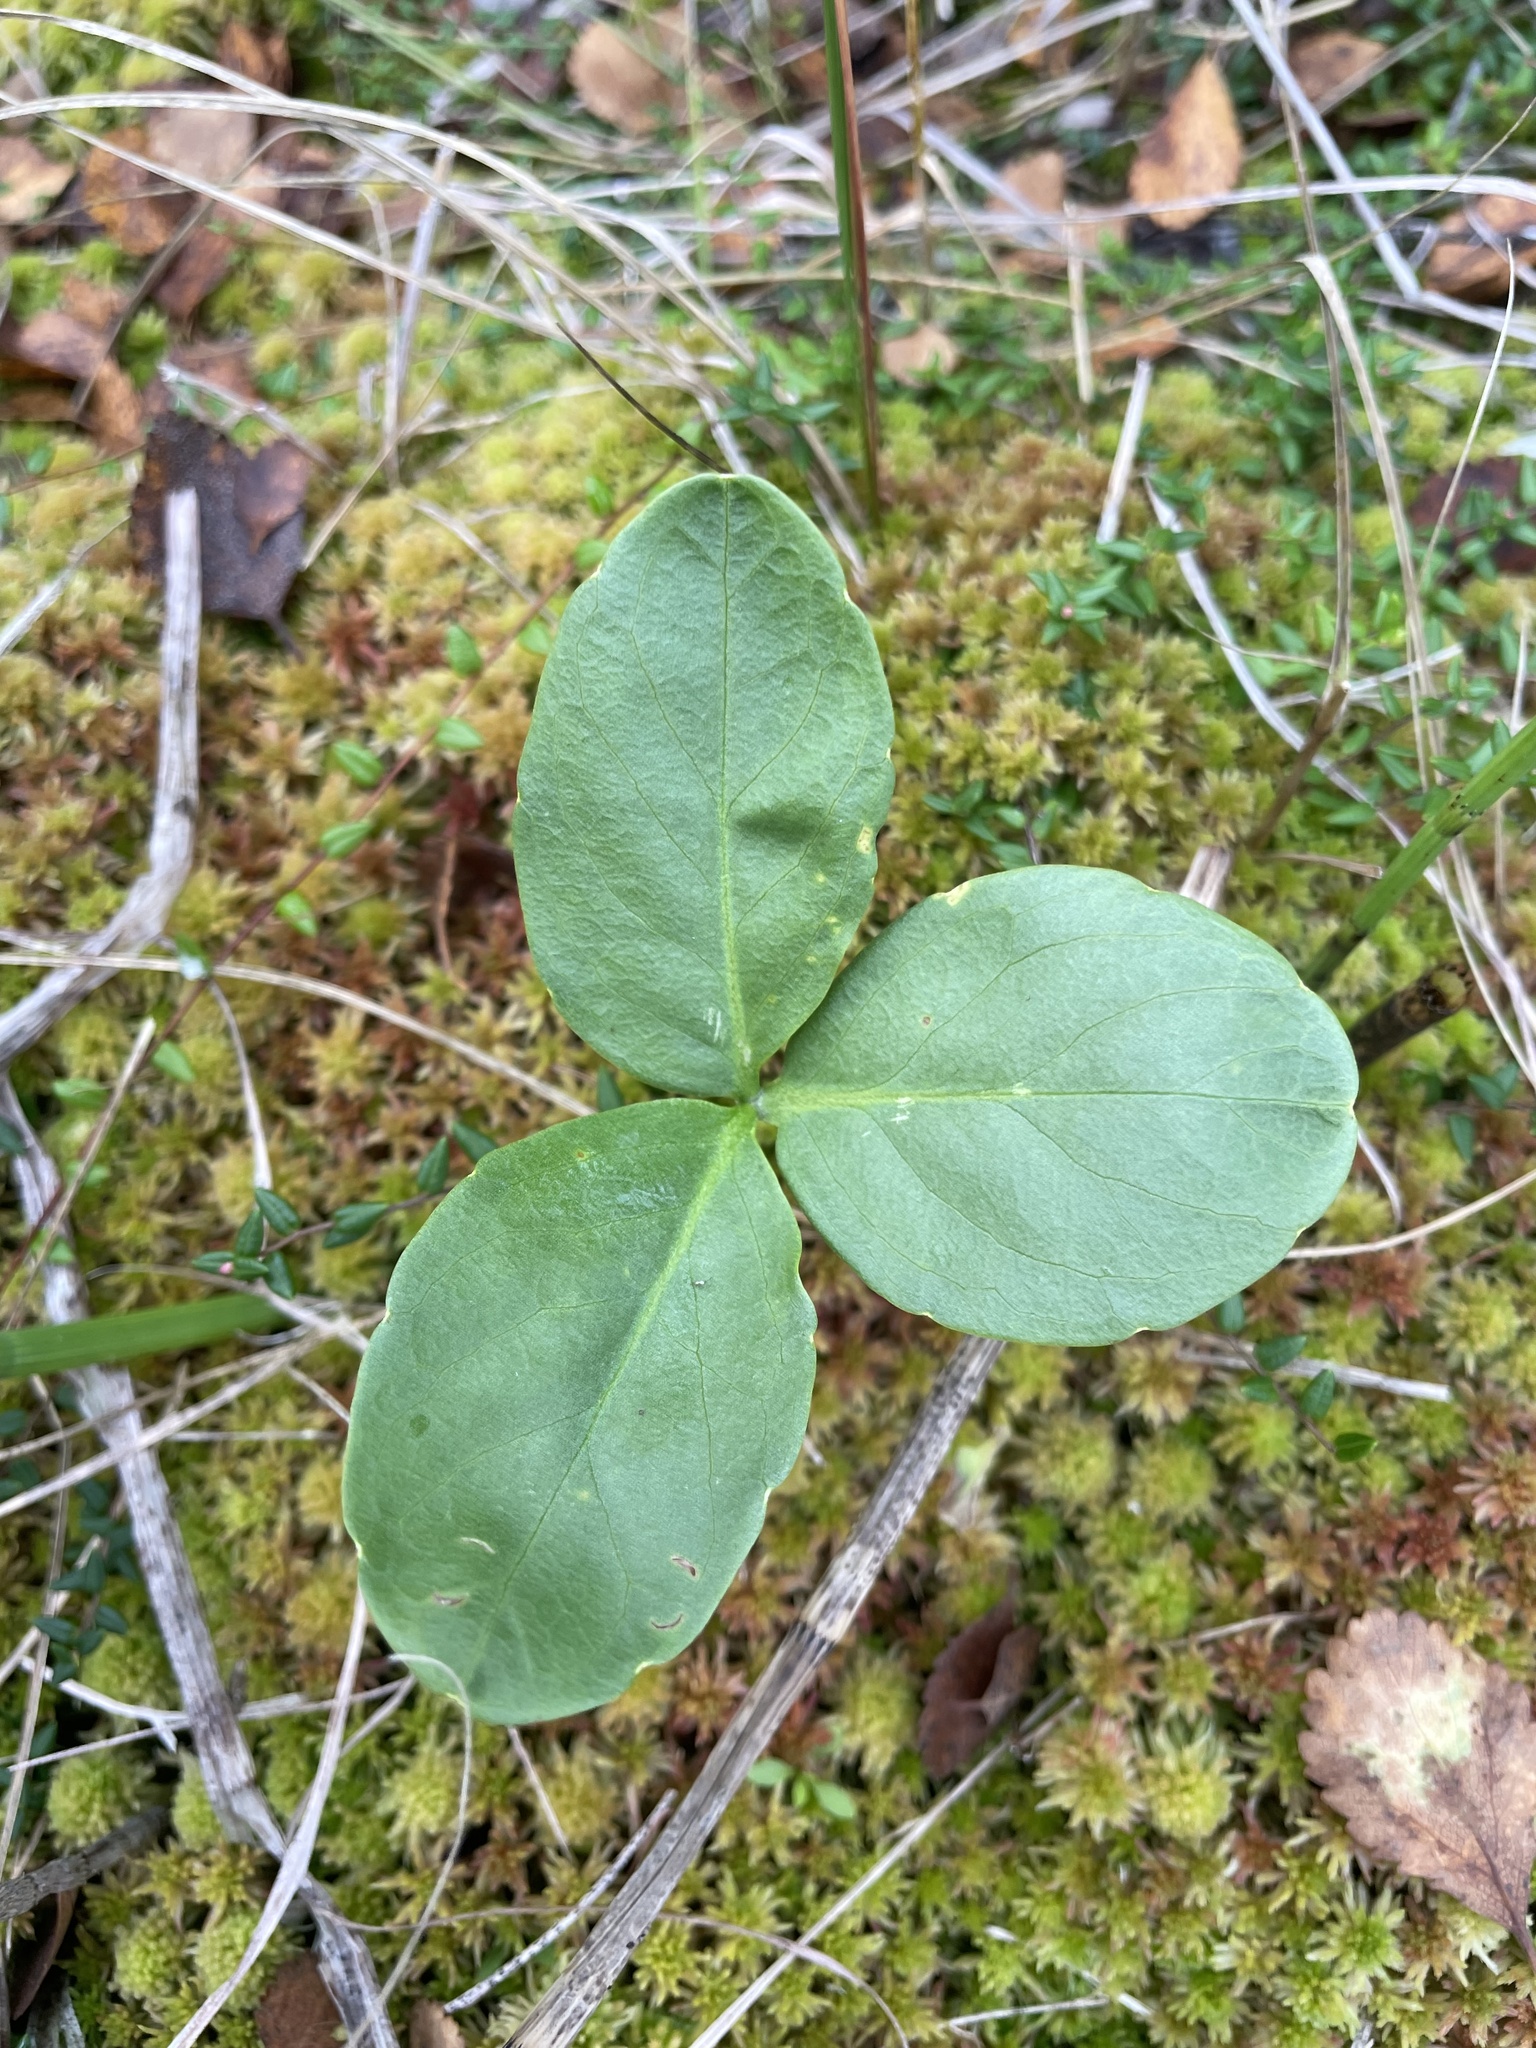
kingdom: Plantae
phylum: Tracheophyta
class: Magnoliopsida
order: Asterales
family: Menyanthaceae
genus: Menyanthes
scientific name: Menyanthes trifoliata
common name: Bogbean
